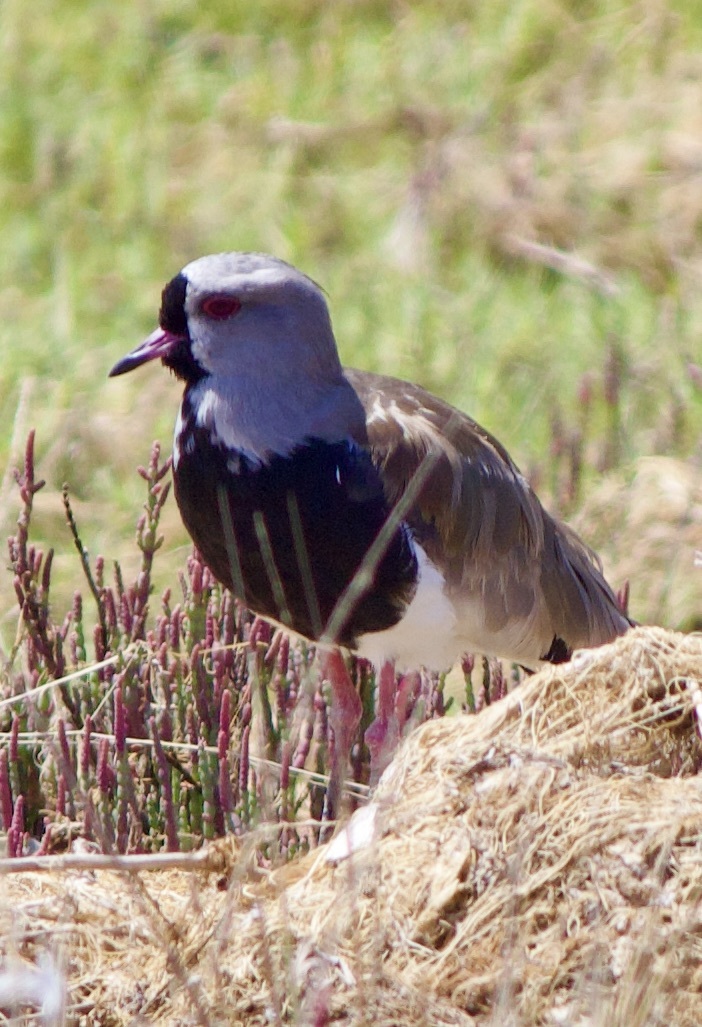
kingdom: Animalia
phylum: Chordata
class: Aves
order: Charadriiformes
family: Charadriidae
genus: Vanellus
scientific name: Vanellus chilensis
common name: Southern lapwing
